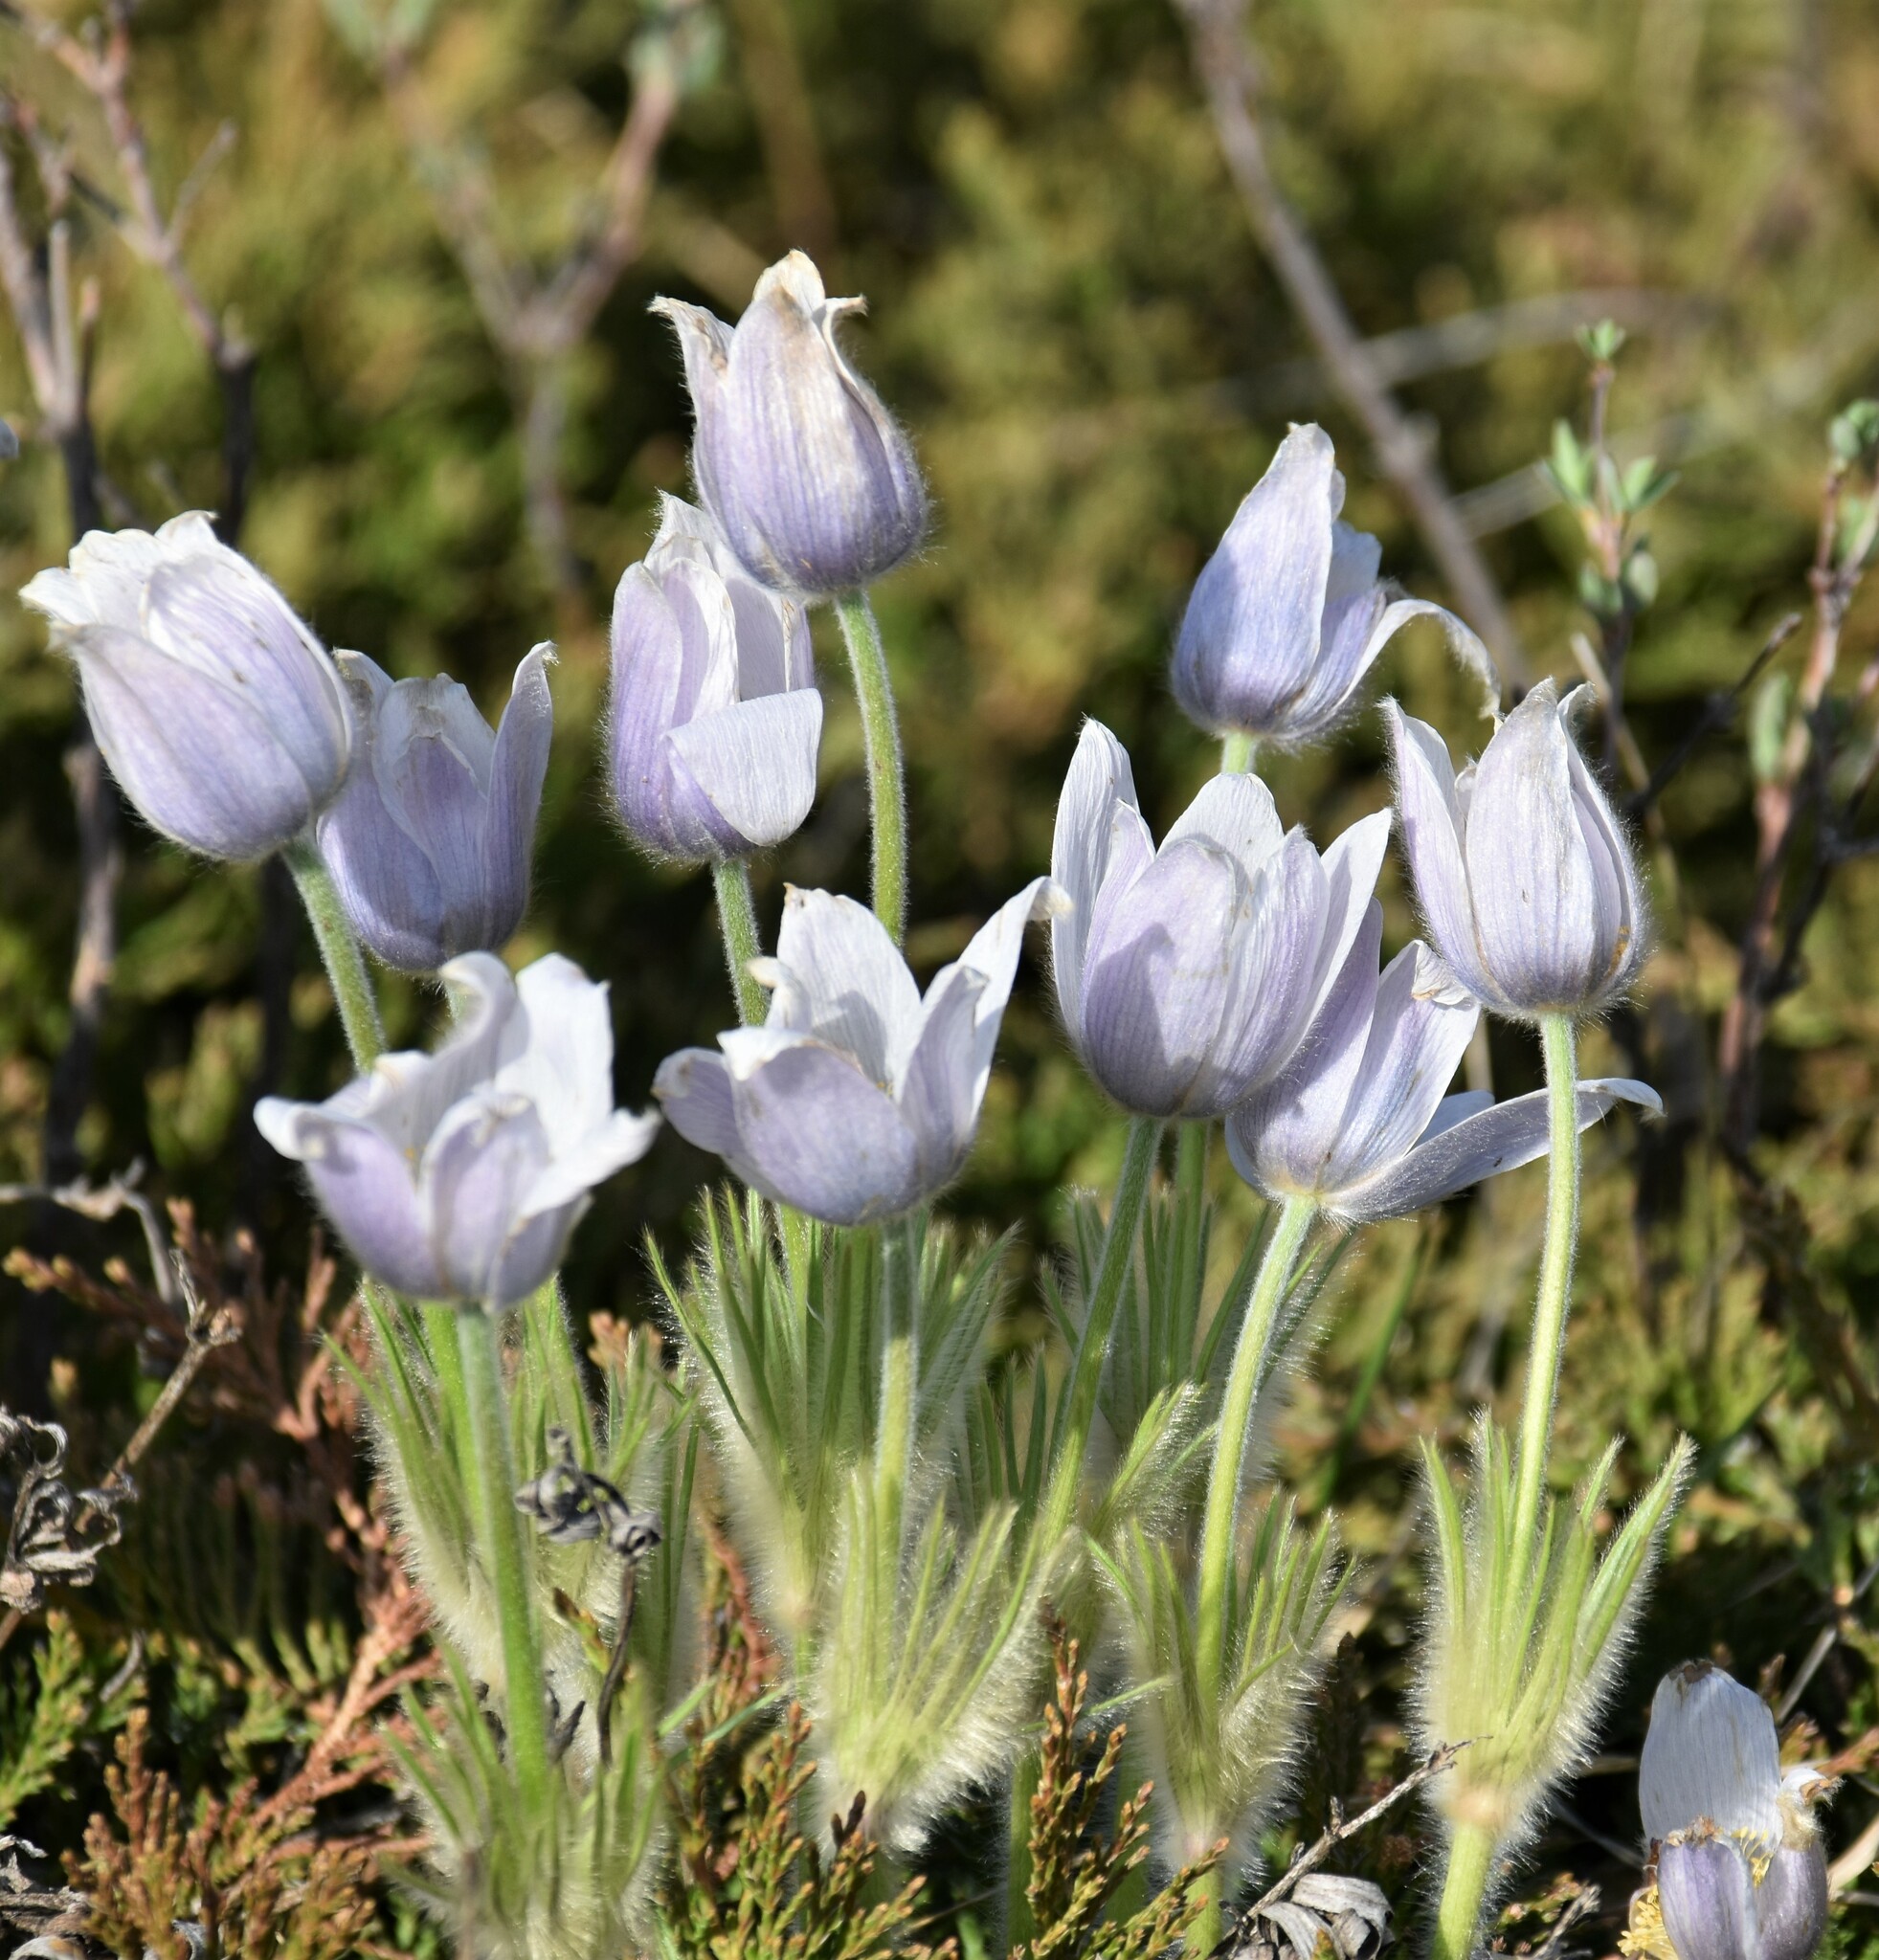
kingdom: Plantae
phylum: Tracheophyta
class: Magnoliopsida
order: Ranunculales
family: Ranunculaceae
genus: Pulsatilla
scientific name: Pulsatilla nuttalliana
